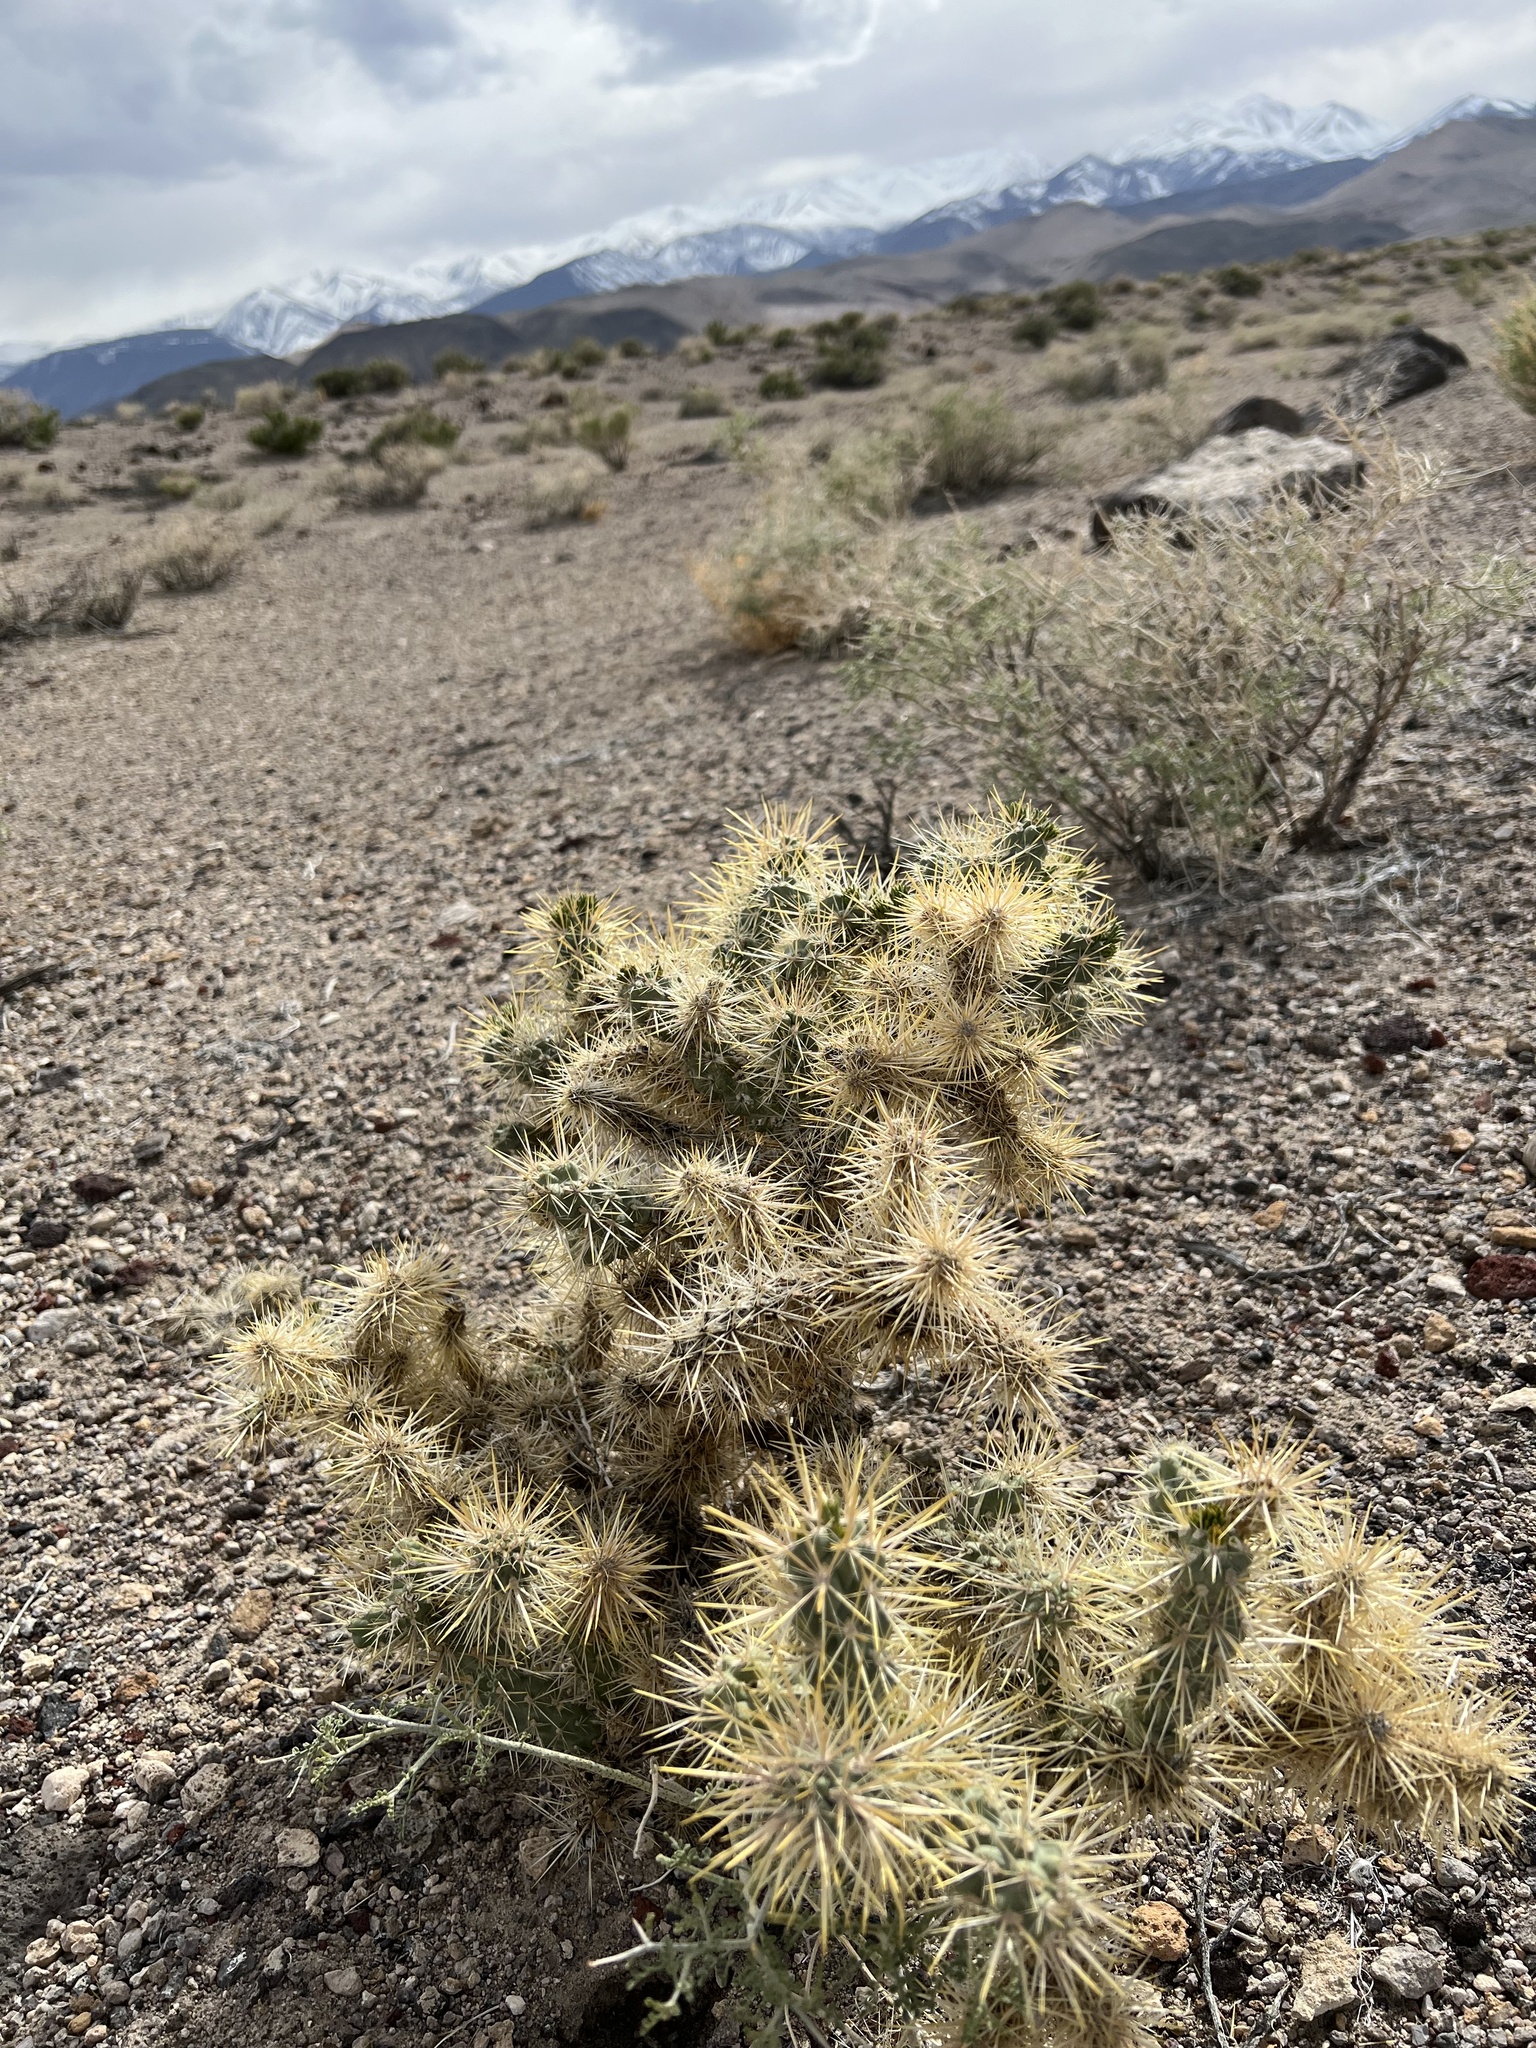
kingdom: Plantae
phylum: Tracheophyta
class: Magnoliopsida
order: Caryophyllales
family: Cactaceae
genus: Cylindropuntia
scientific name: Cylindropuntia echinocarpa
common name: Ground cholla
